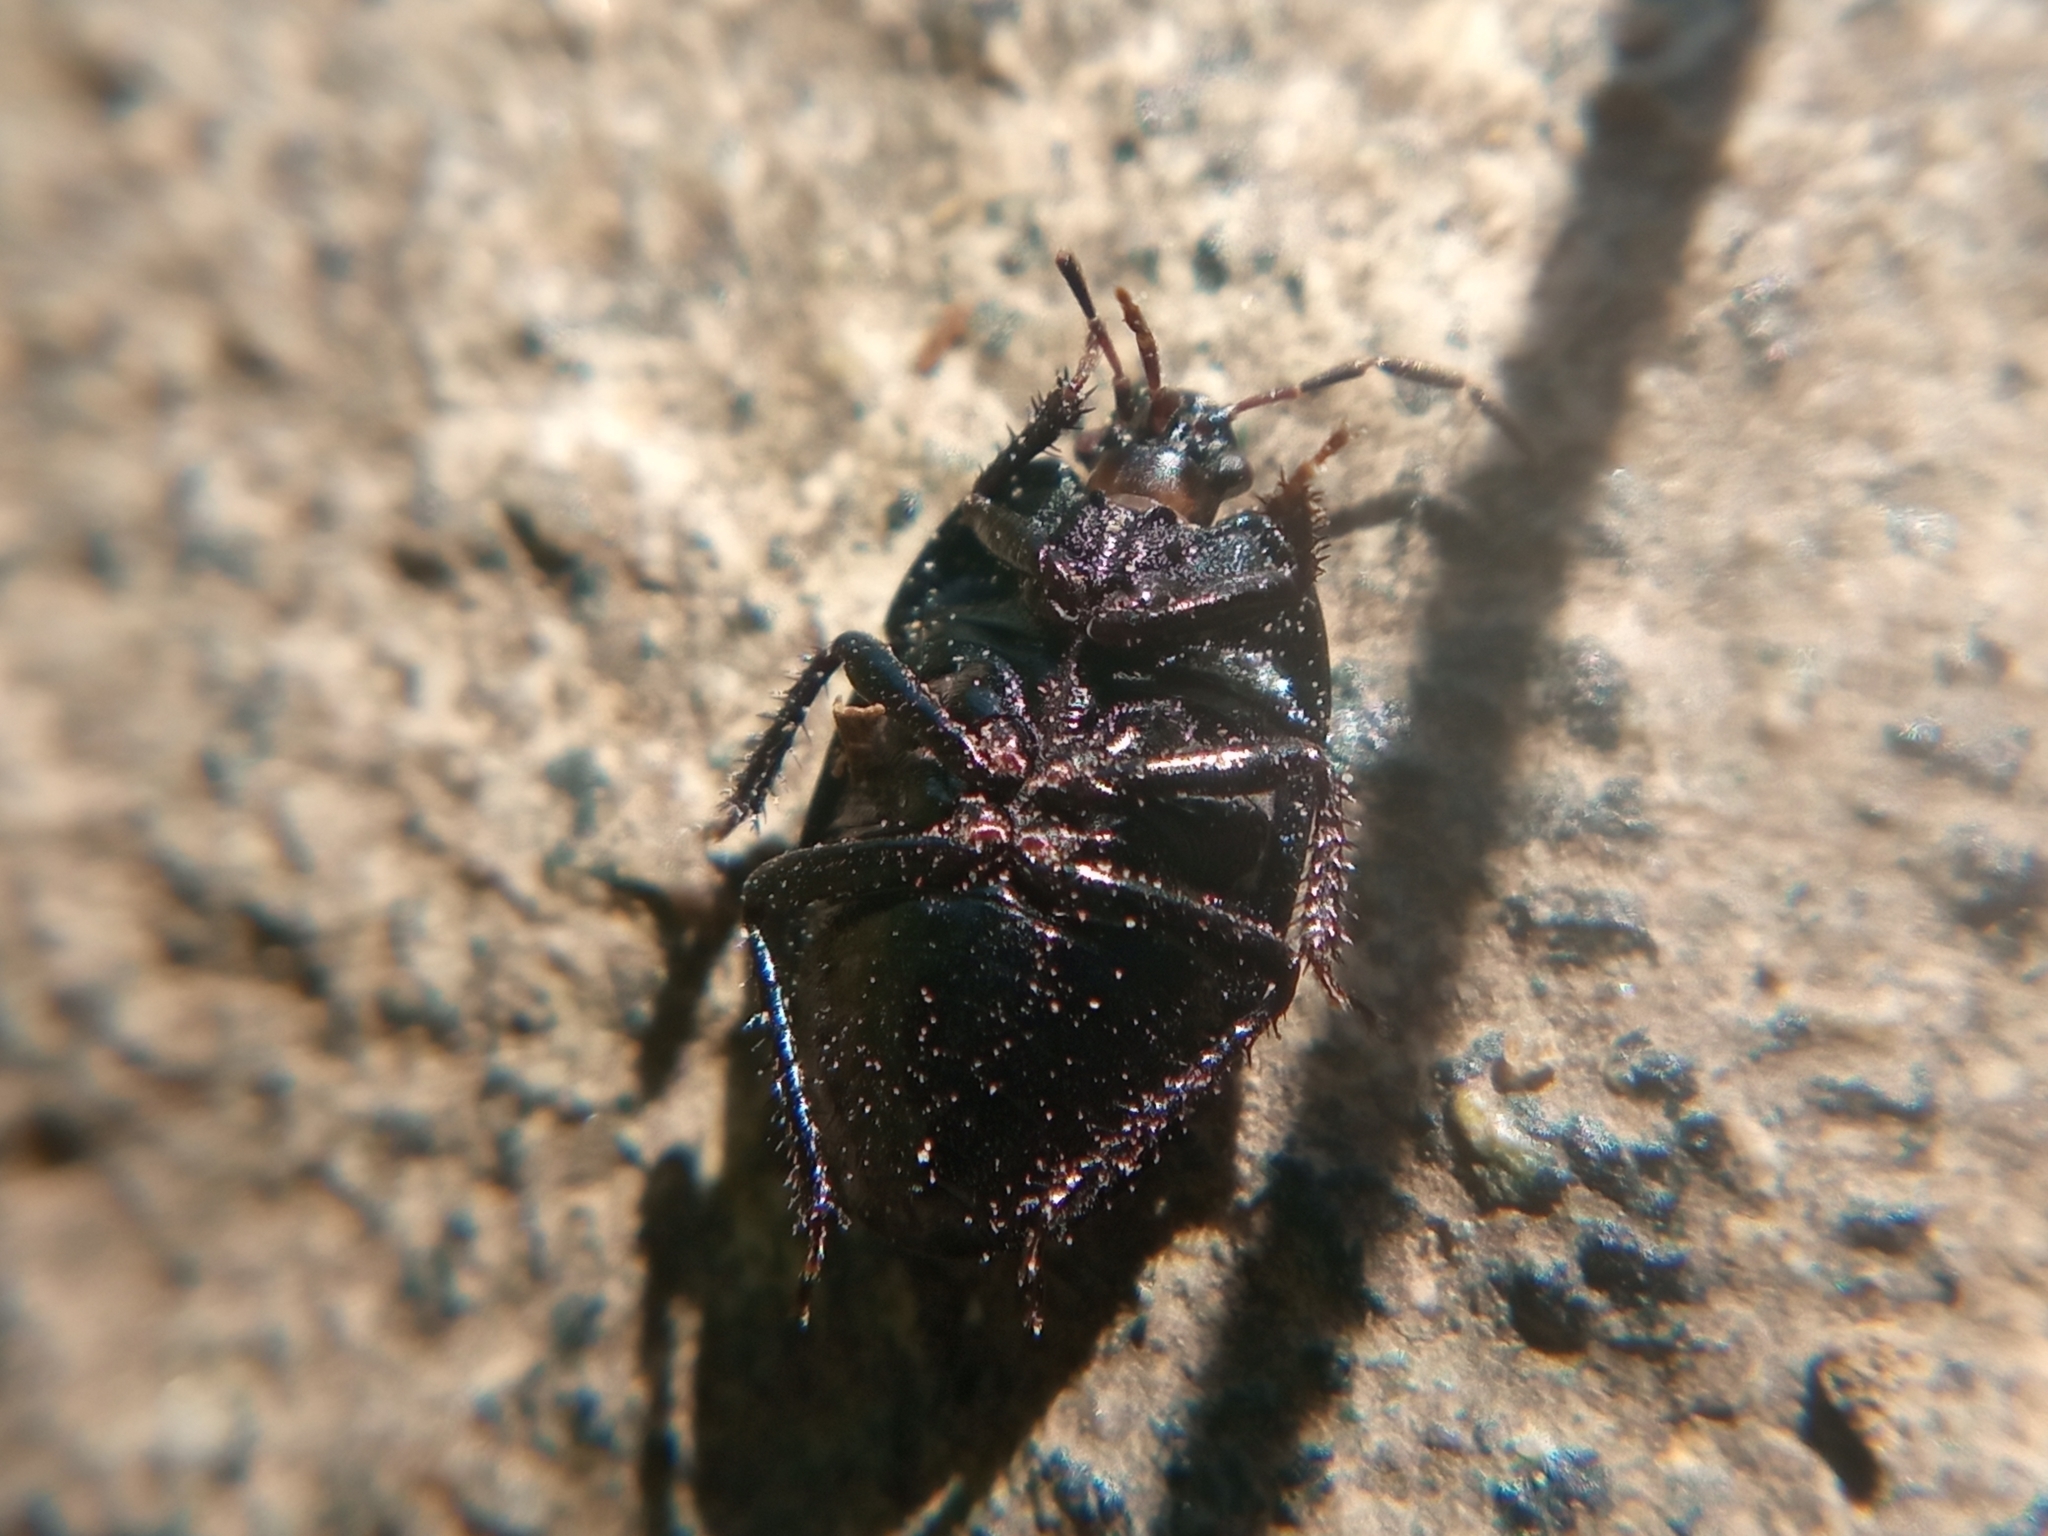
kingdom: Animalia
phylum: Arthropoda
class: Insecta
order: Hemiptera
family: Cydnidae
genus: Sehirus
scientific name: Sehirus luctuosus
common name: Forget-me-not shieldbug
